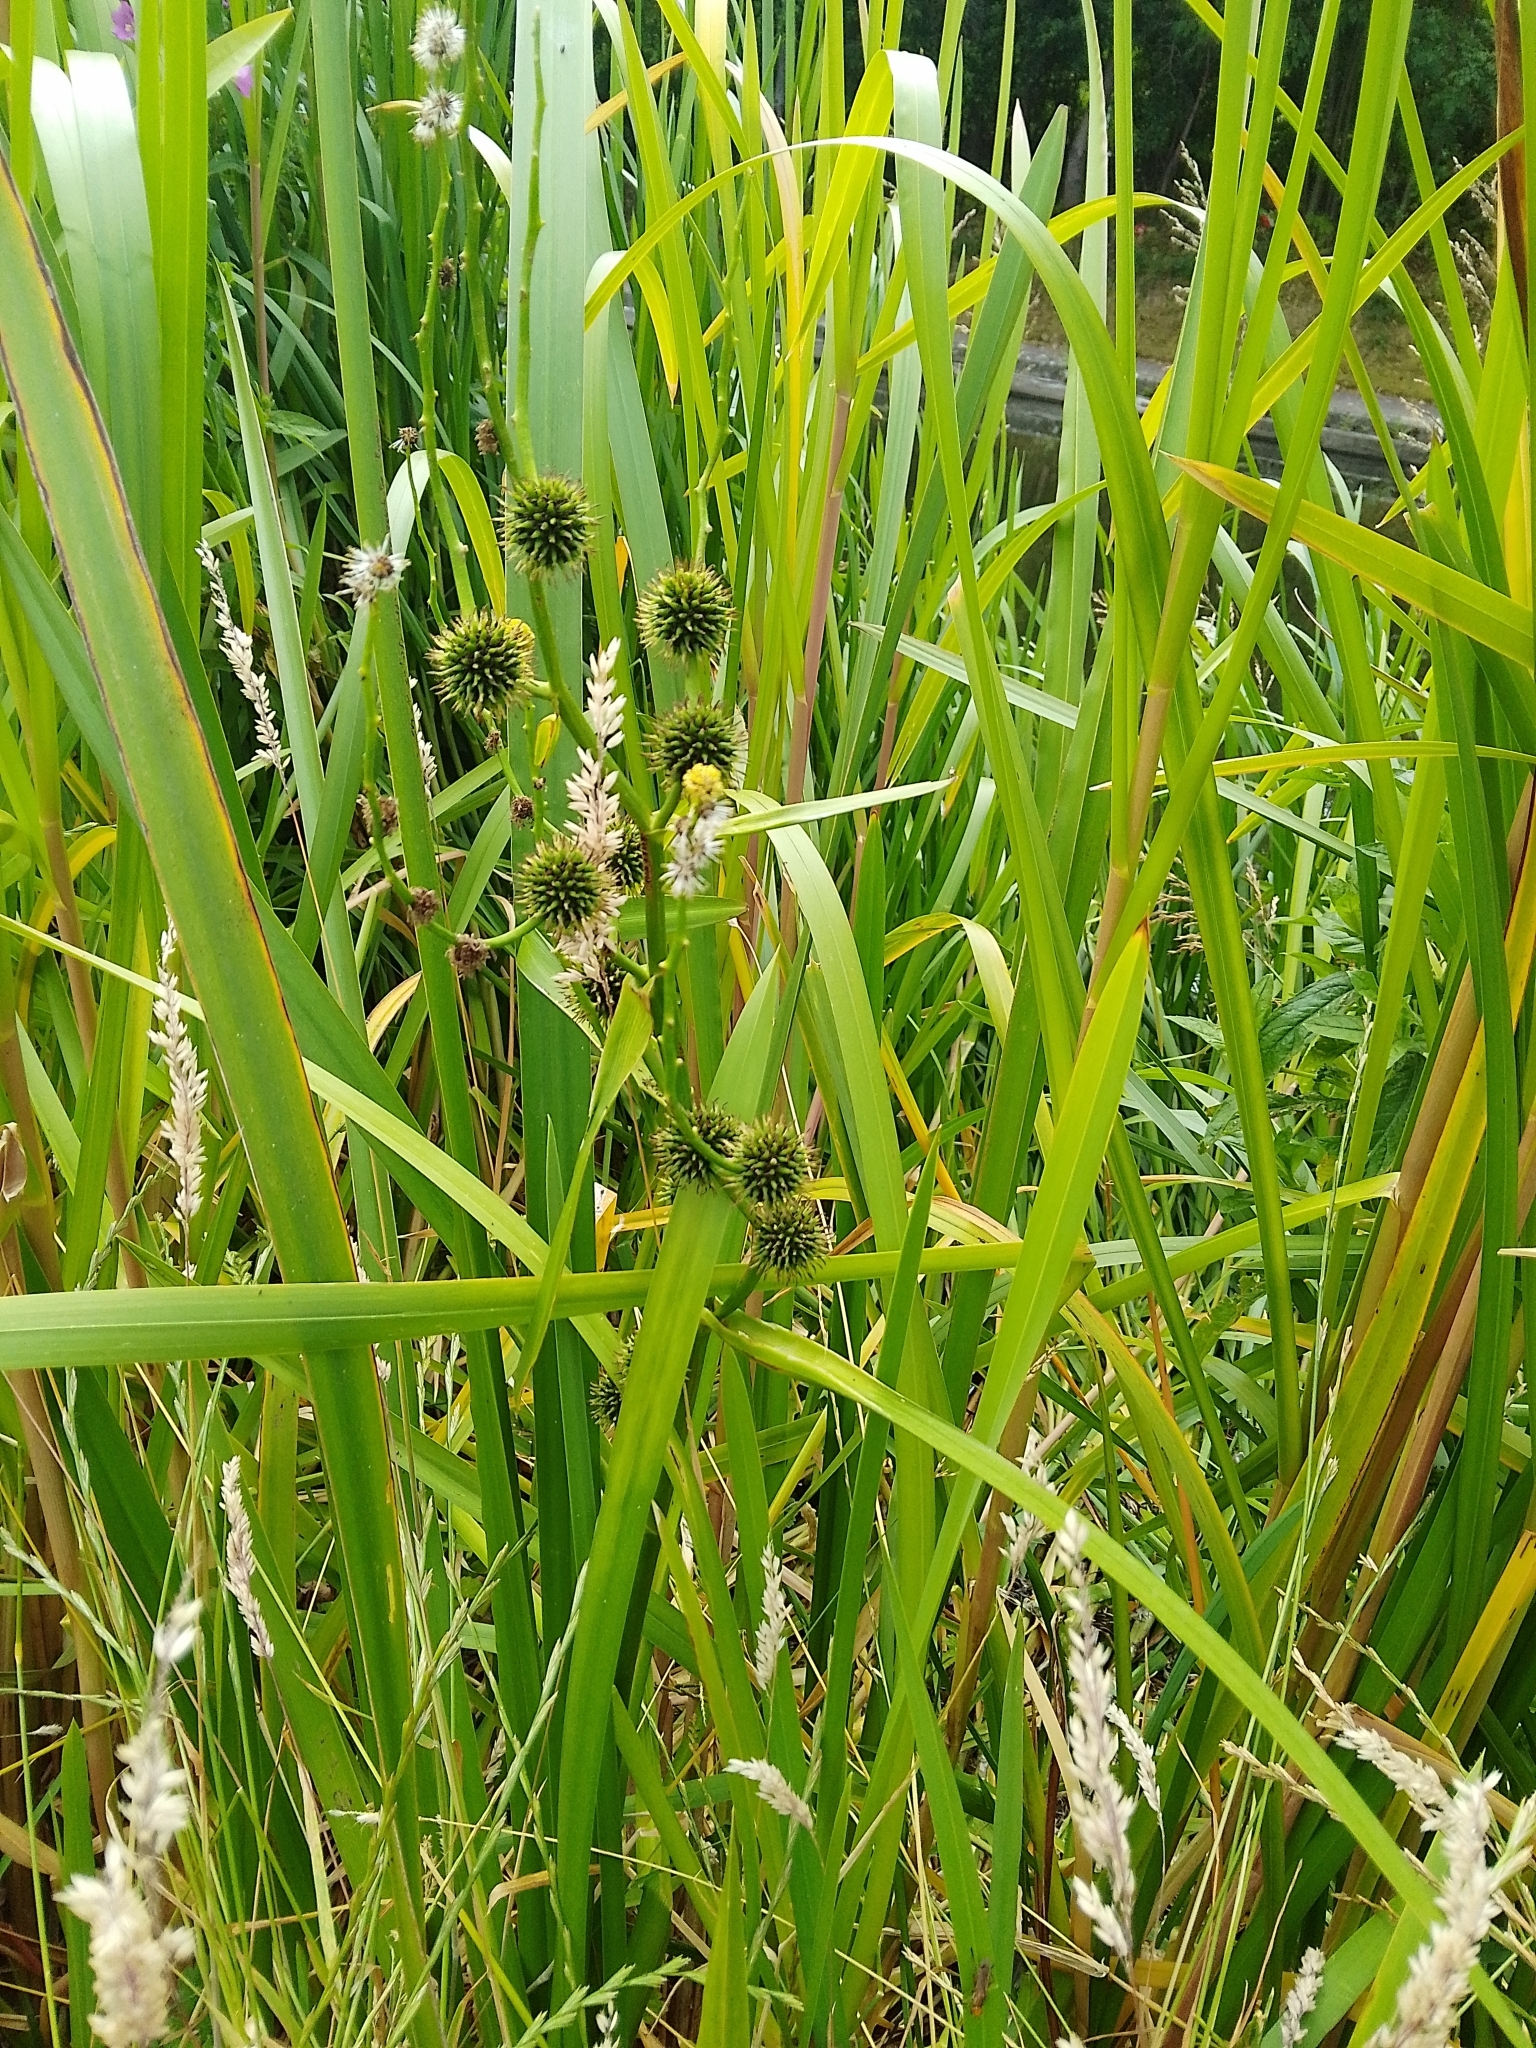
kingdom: Plantae
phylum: Tracheophyta
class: Liliopsida
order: Poales
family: Typhaceae
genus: Sparganium
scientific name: Sparganium erectum
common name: Branched bur-reed
